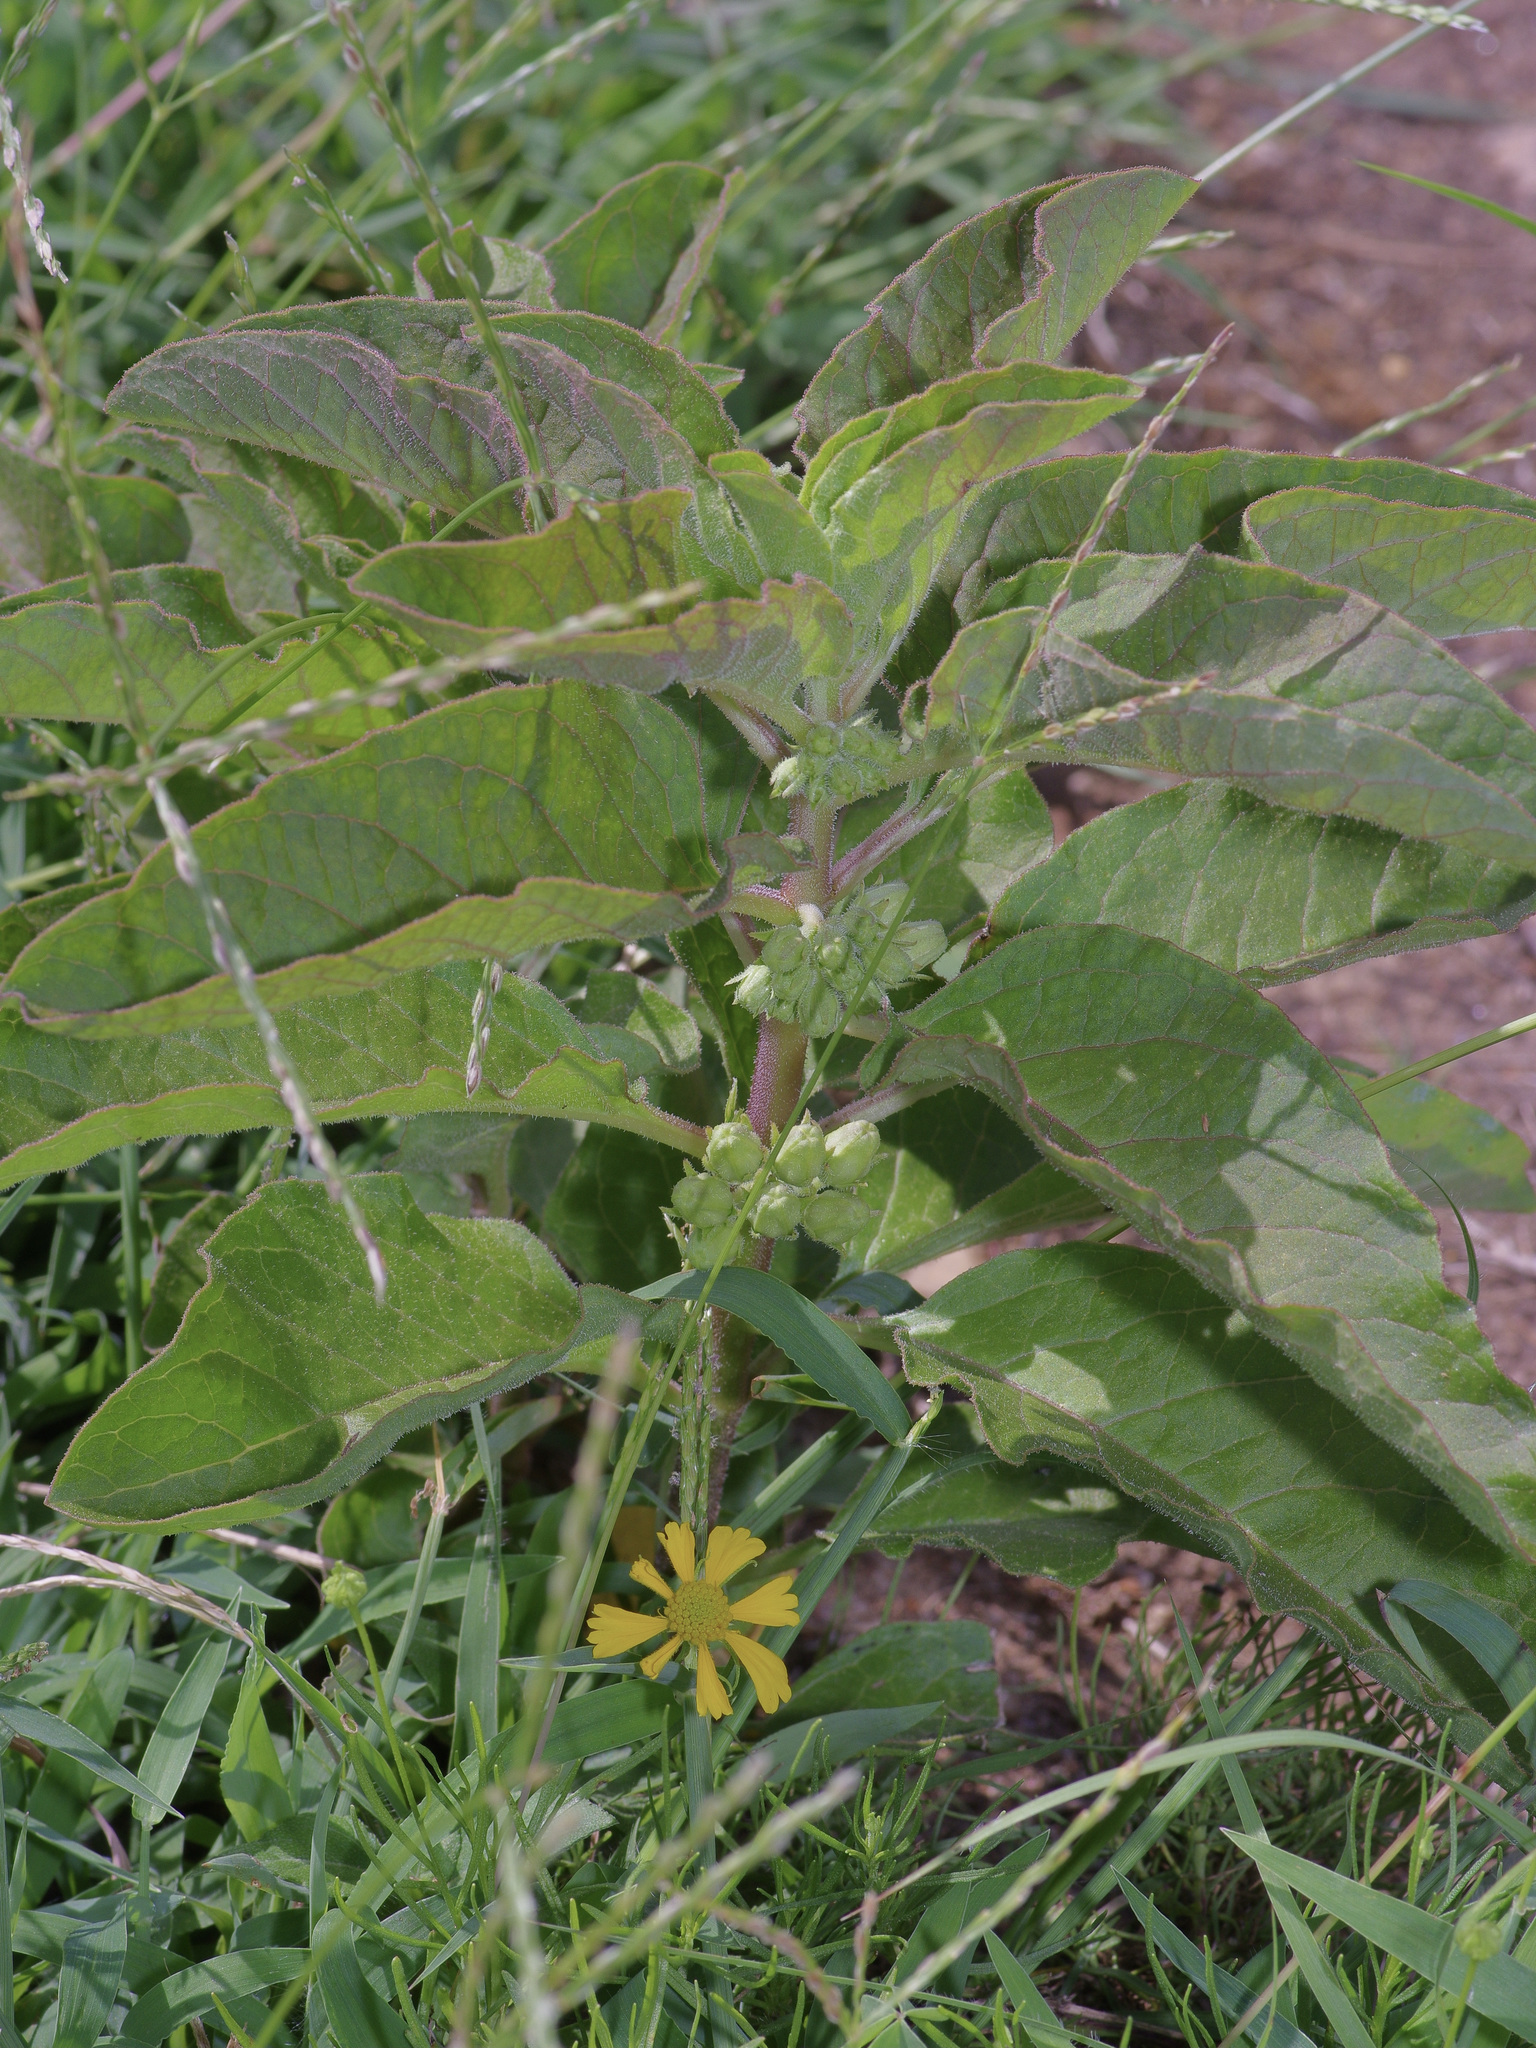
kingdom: Plantae
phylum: Tracheophyta
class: Magnoliopsida
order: Gentianales
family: Apocynaceae
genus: Asclepias
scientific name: Asclepias oenotheroides
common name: Zizotes milkweed
